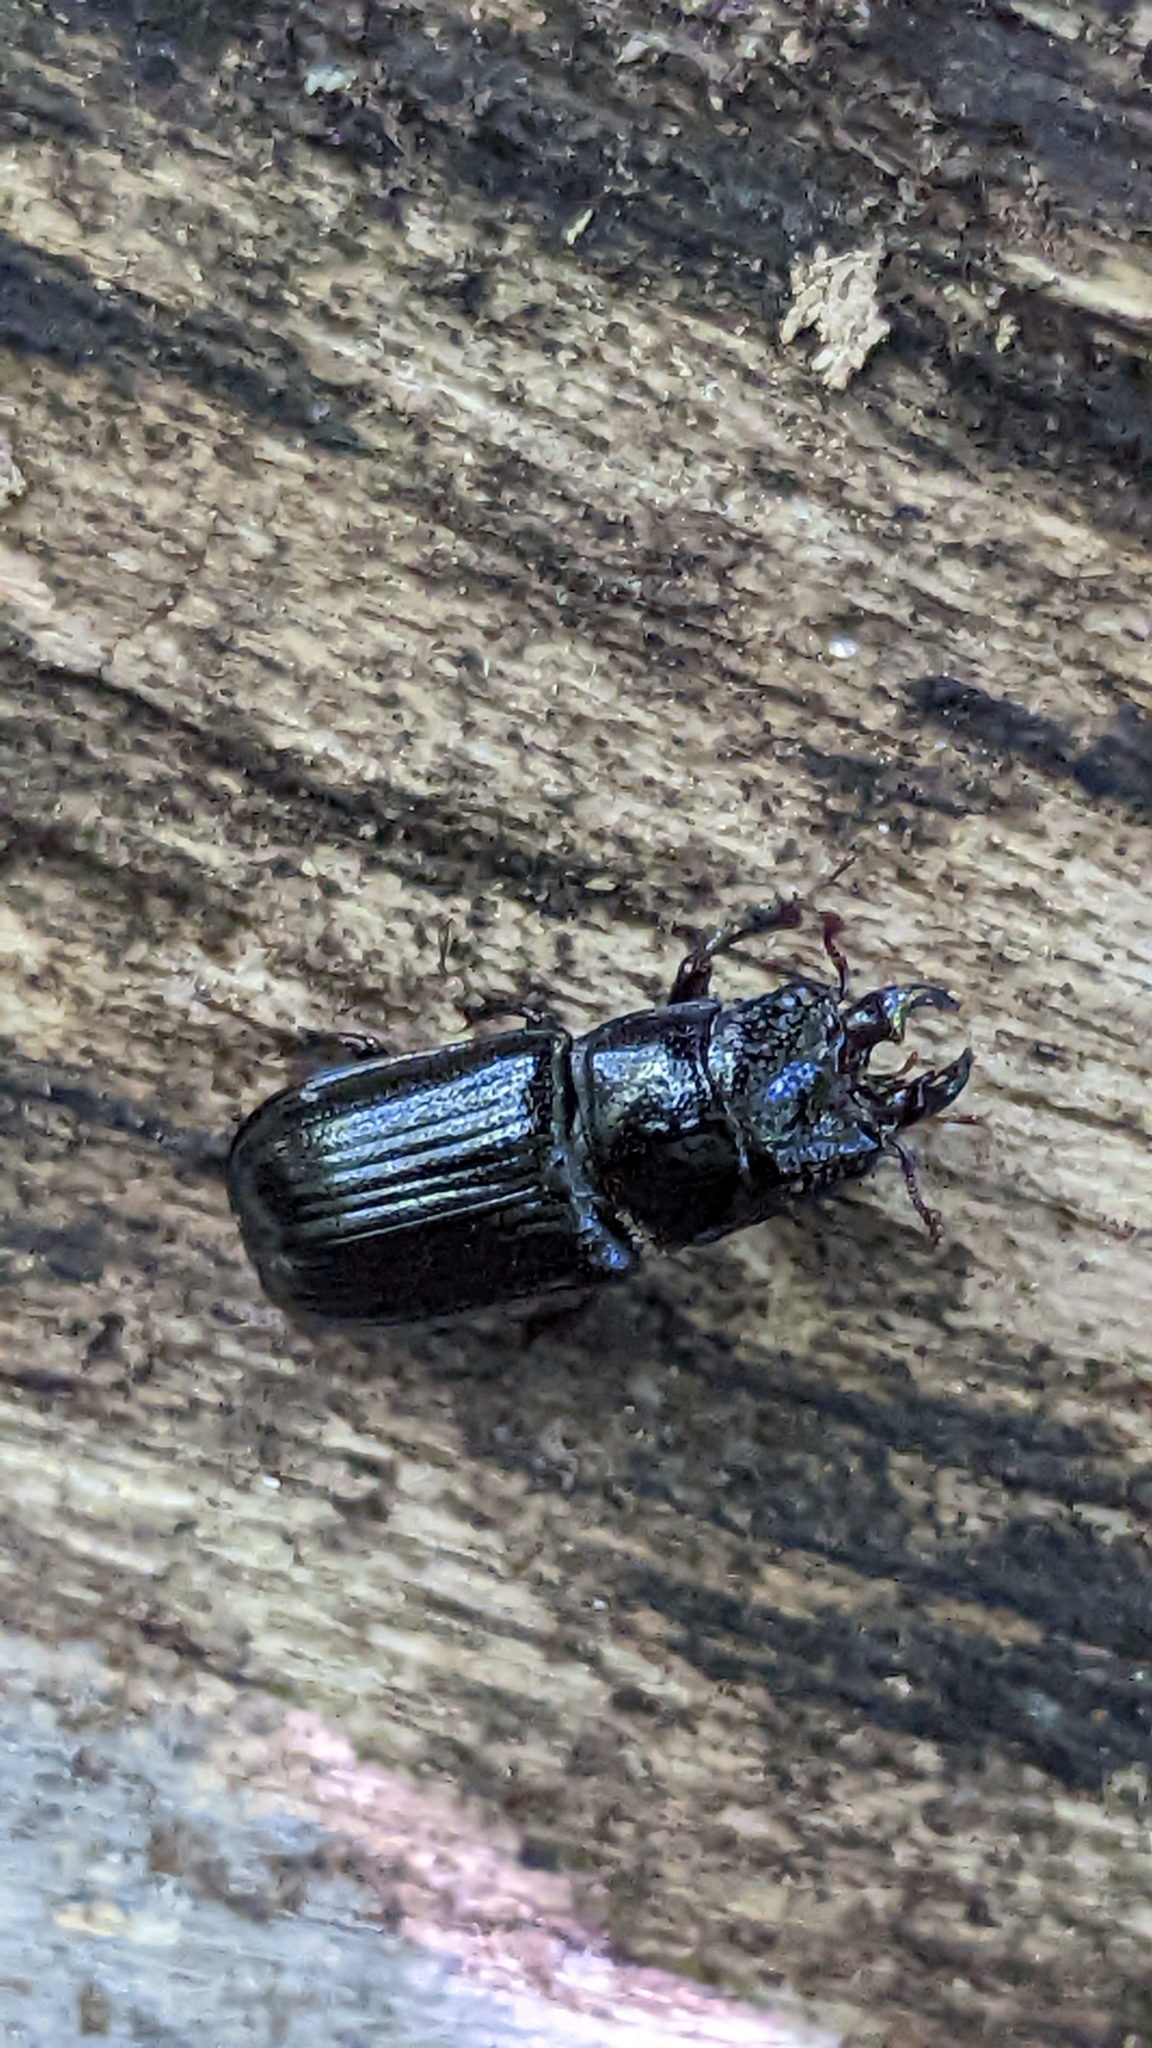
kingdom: Animalia
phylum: Arthropoda
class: Insecta
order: Coleoptera
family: Lucanidae
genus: Ceruchus
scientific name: Ceruchus piceus
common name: Red-rot decay stag beetle
